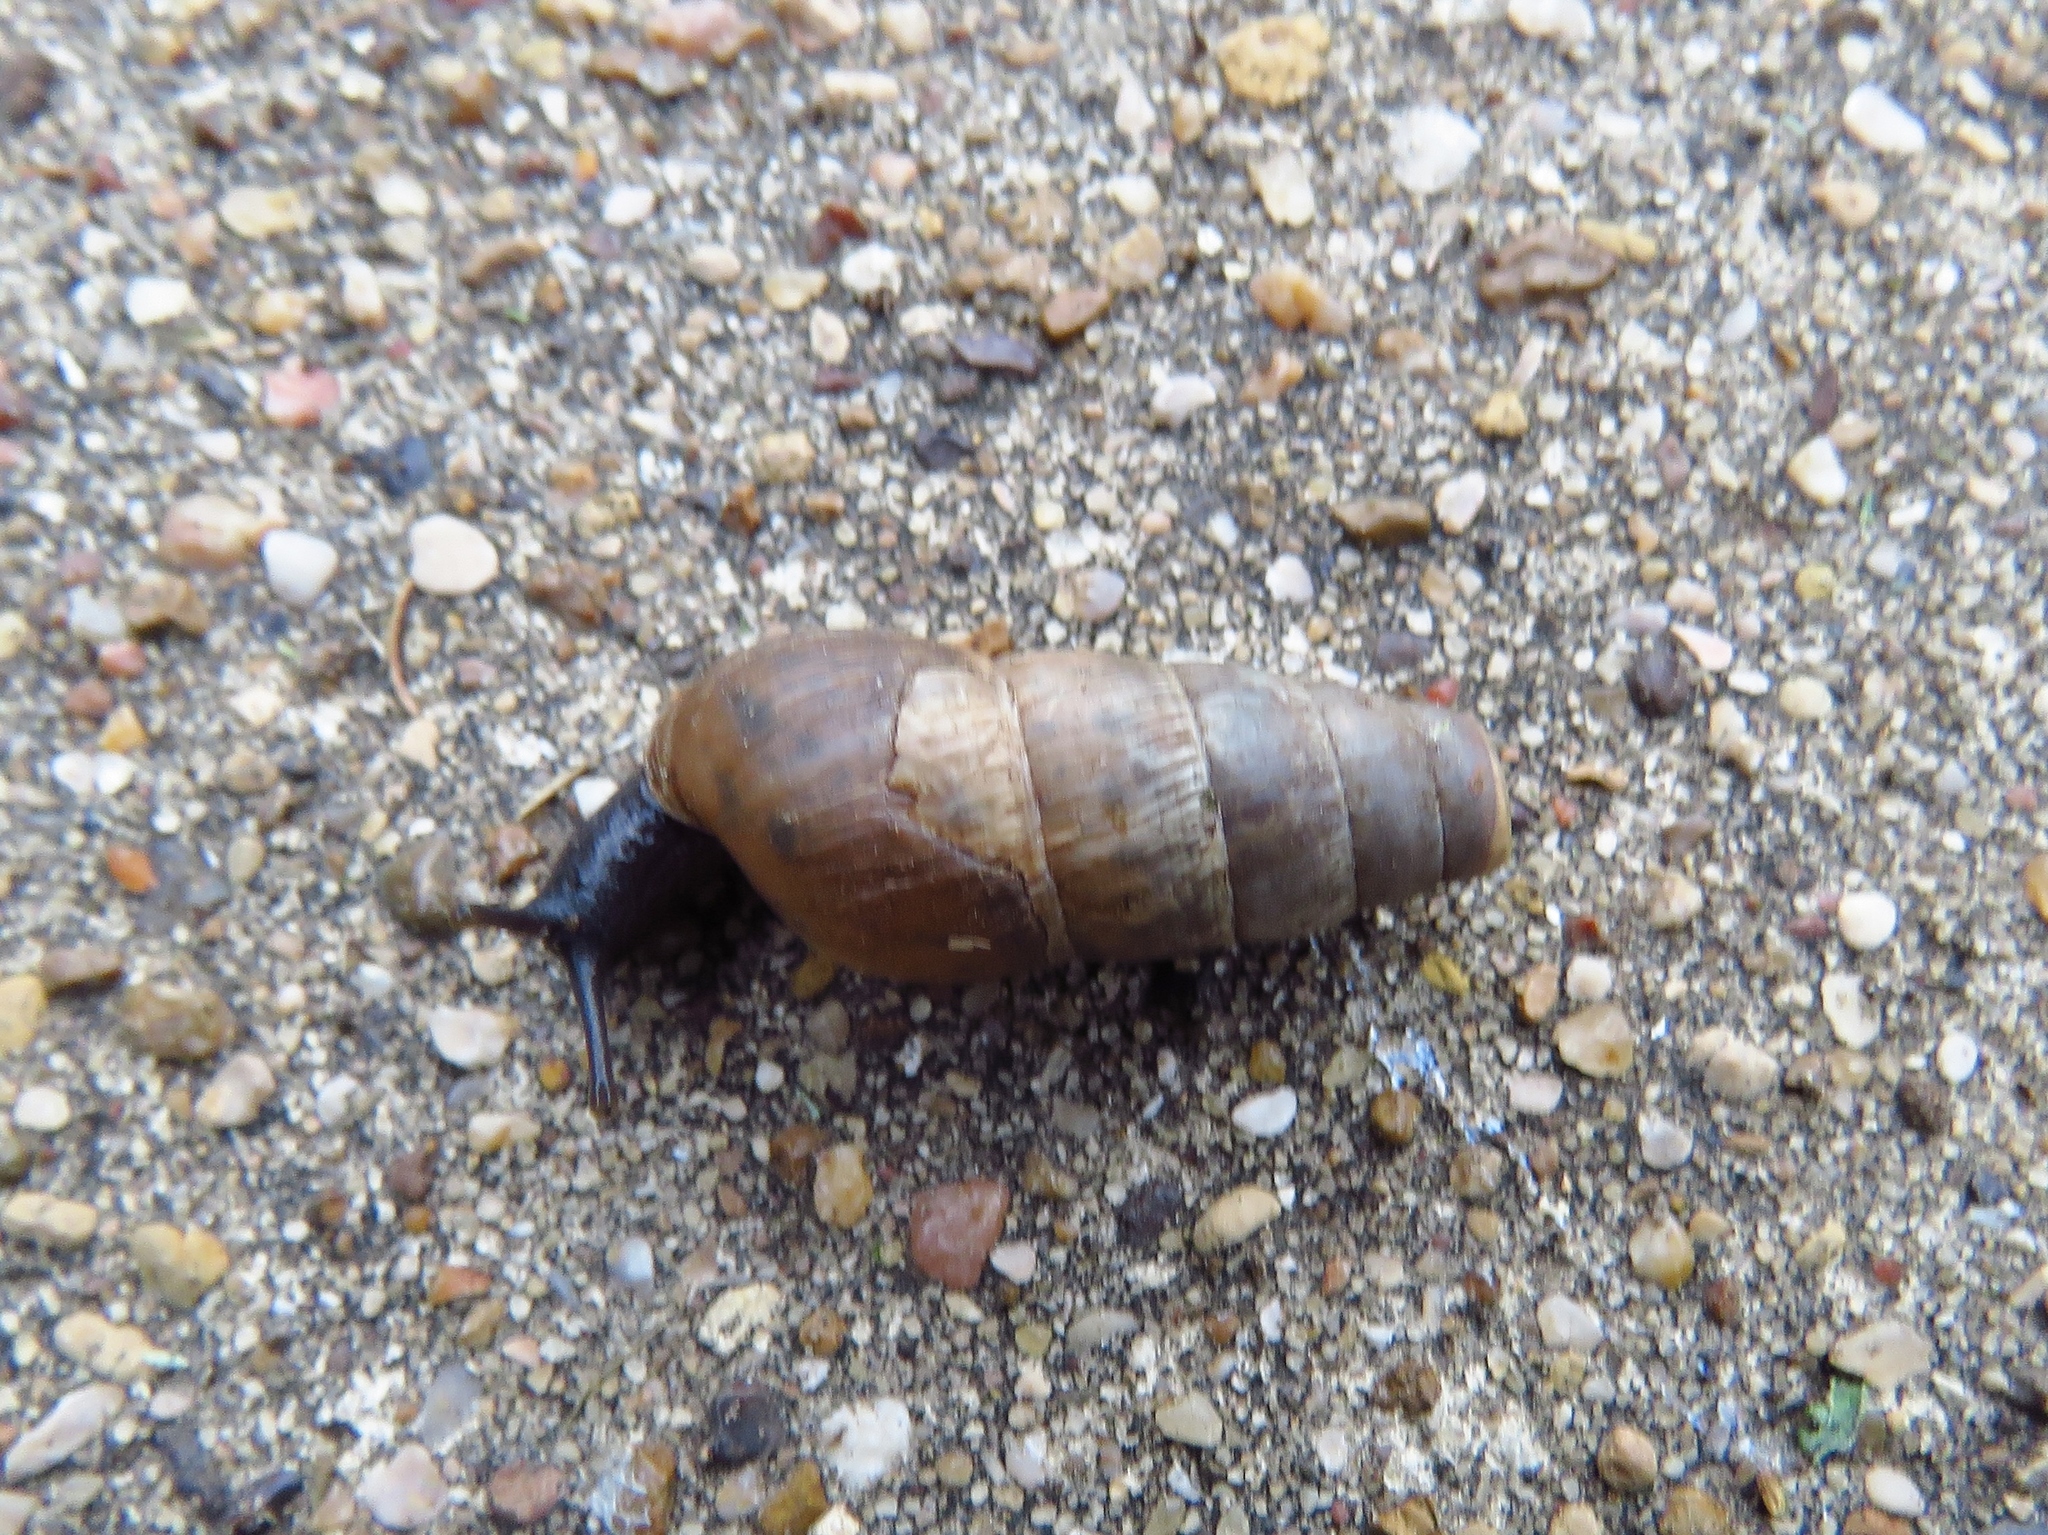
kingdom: Animalia
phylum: Mollusca
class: Gastropoda
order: Stylommatophora
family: Achatinidae
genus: Rumina
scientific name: Rumina decollata
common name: Decollate snail
